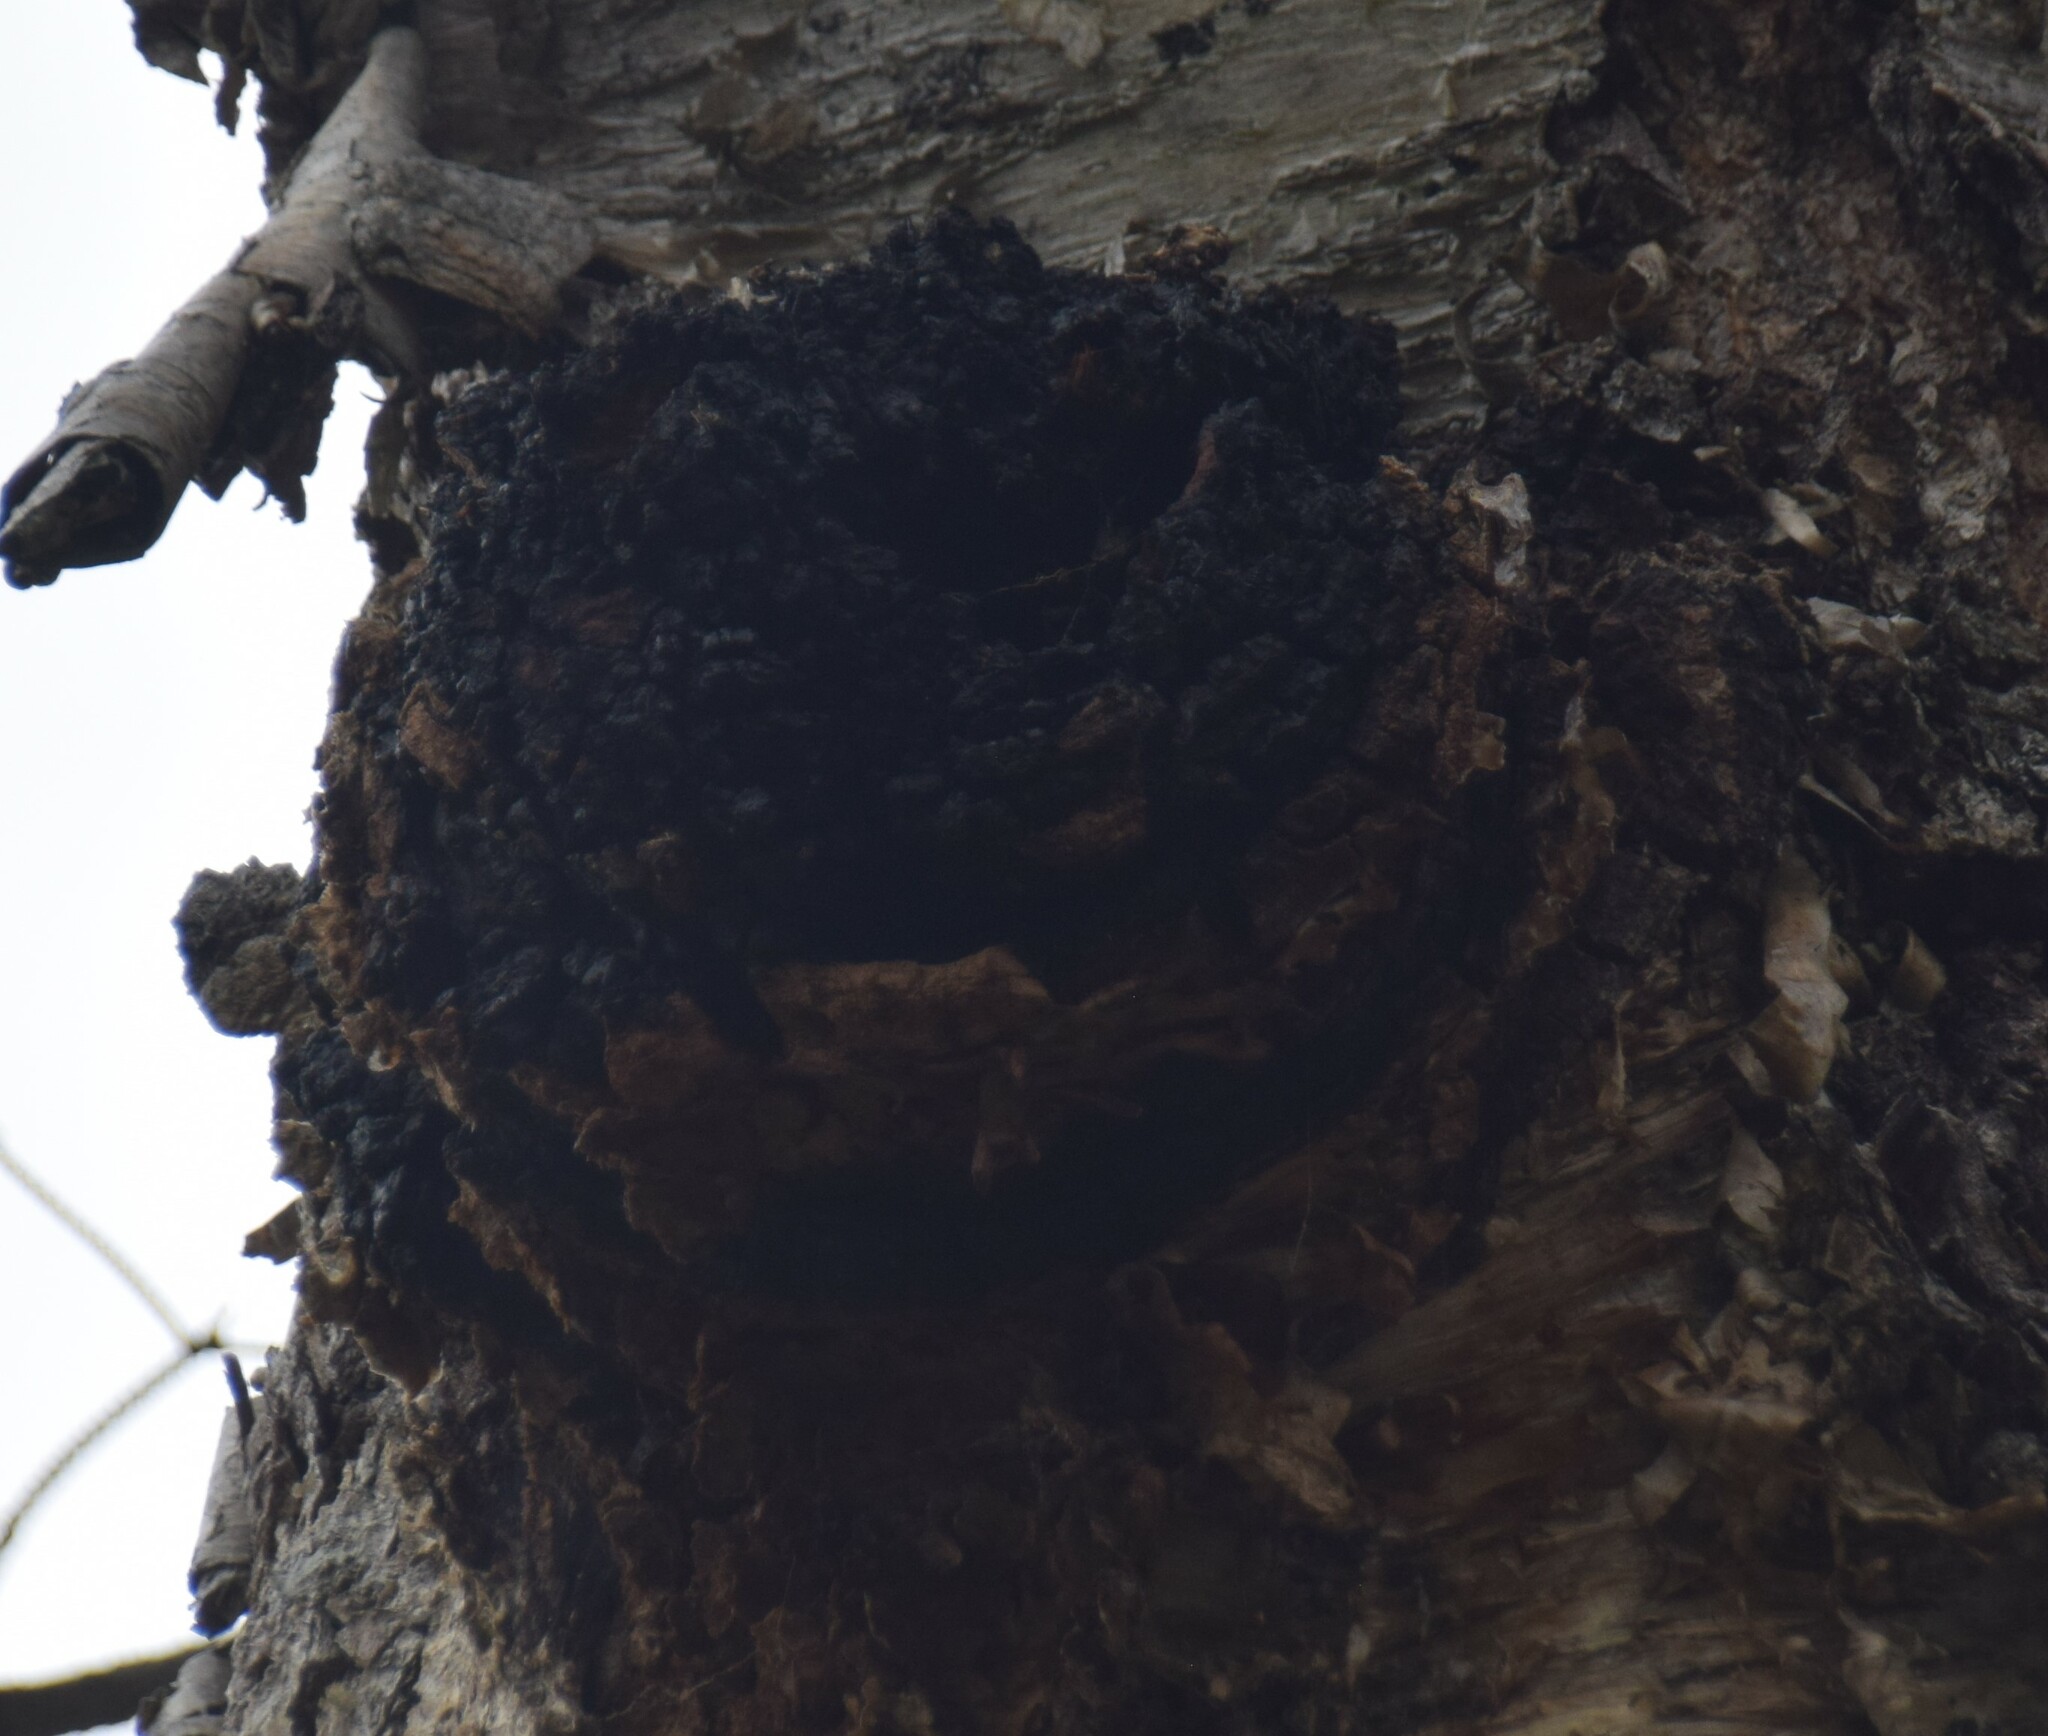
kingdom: Fungi
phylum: Basidiomycota
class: Agaricomycetes
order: Hymenochaetales
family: Hymenochaetaceae
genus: Inonotus
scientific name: Inonotus obliquus
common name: Chaga
